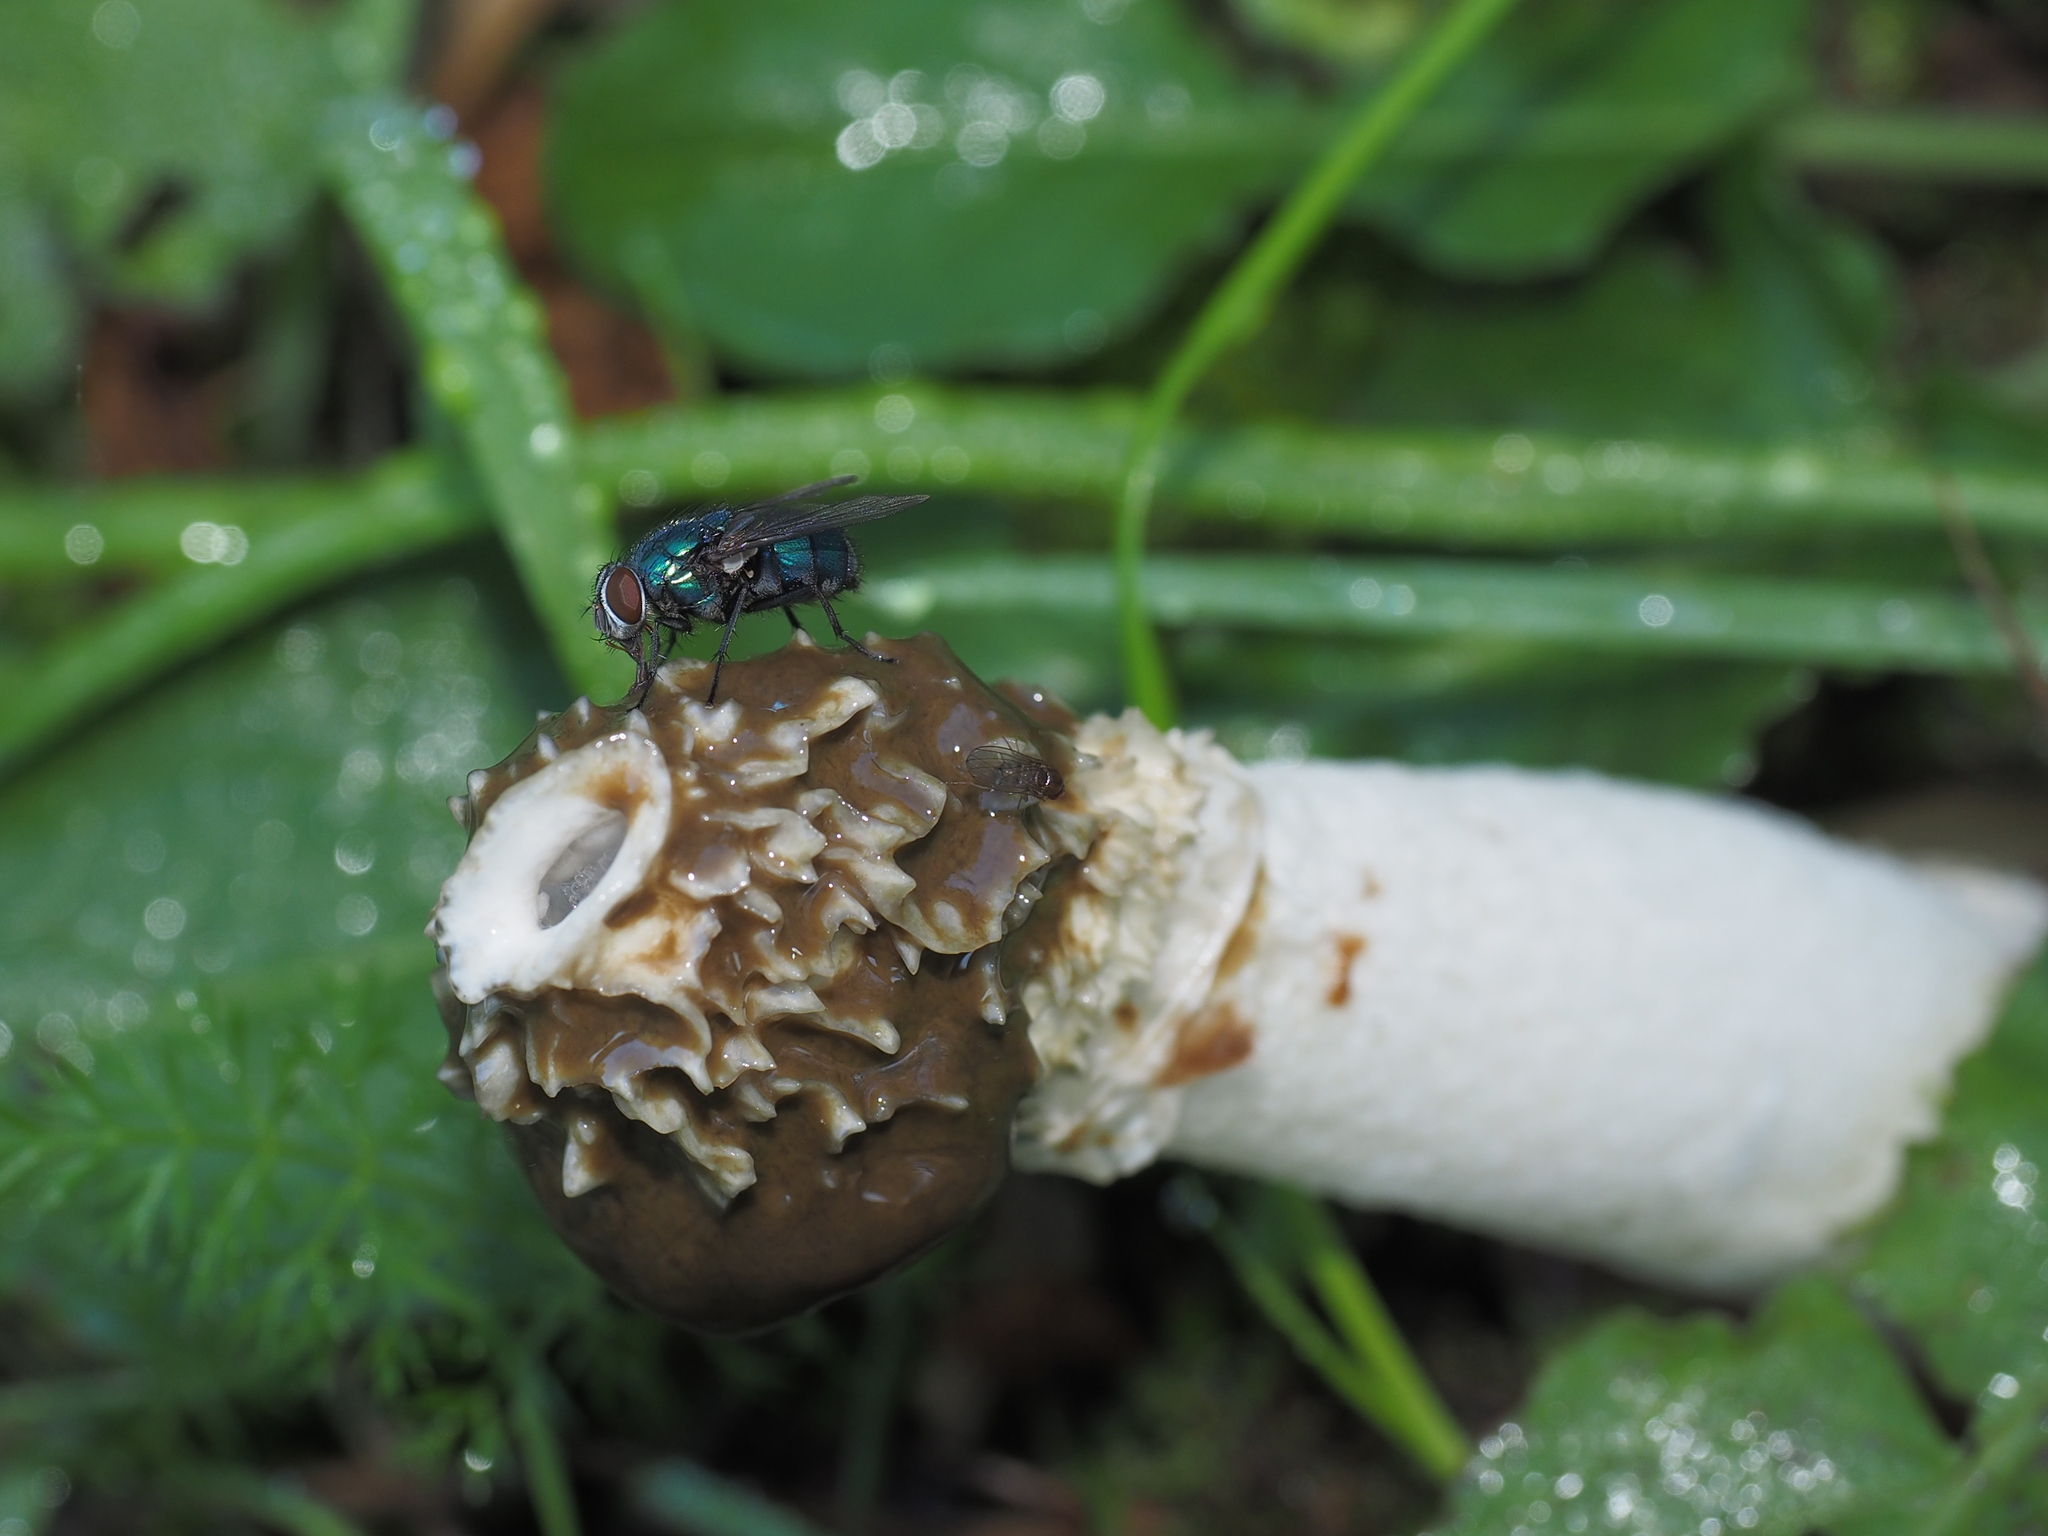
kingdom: Fungi
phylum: Basidiomycota
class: Agaricomycetes
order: Phallales
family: Phallaceae
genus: Phallus
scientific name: Phallus impudicus
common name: Common stinkhorn
